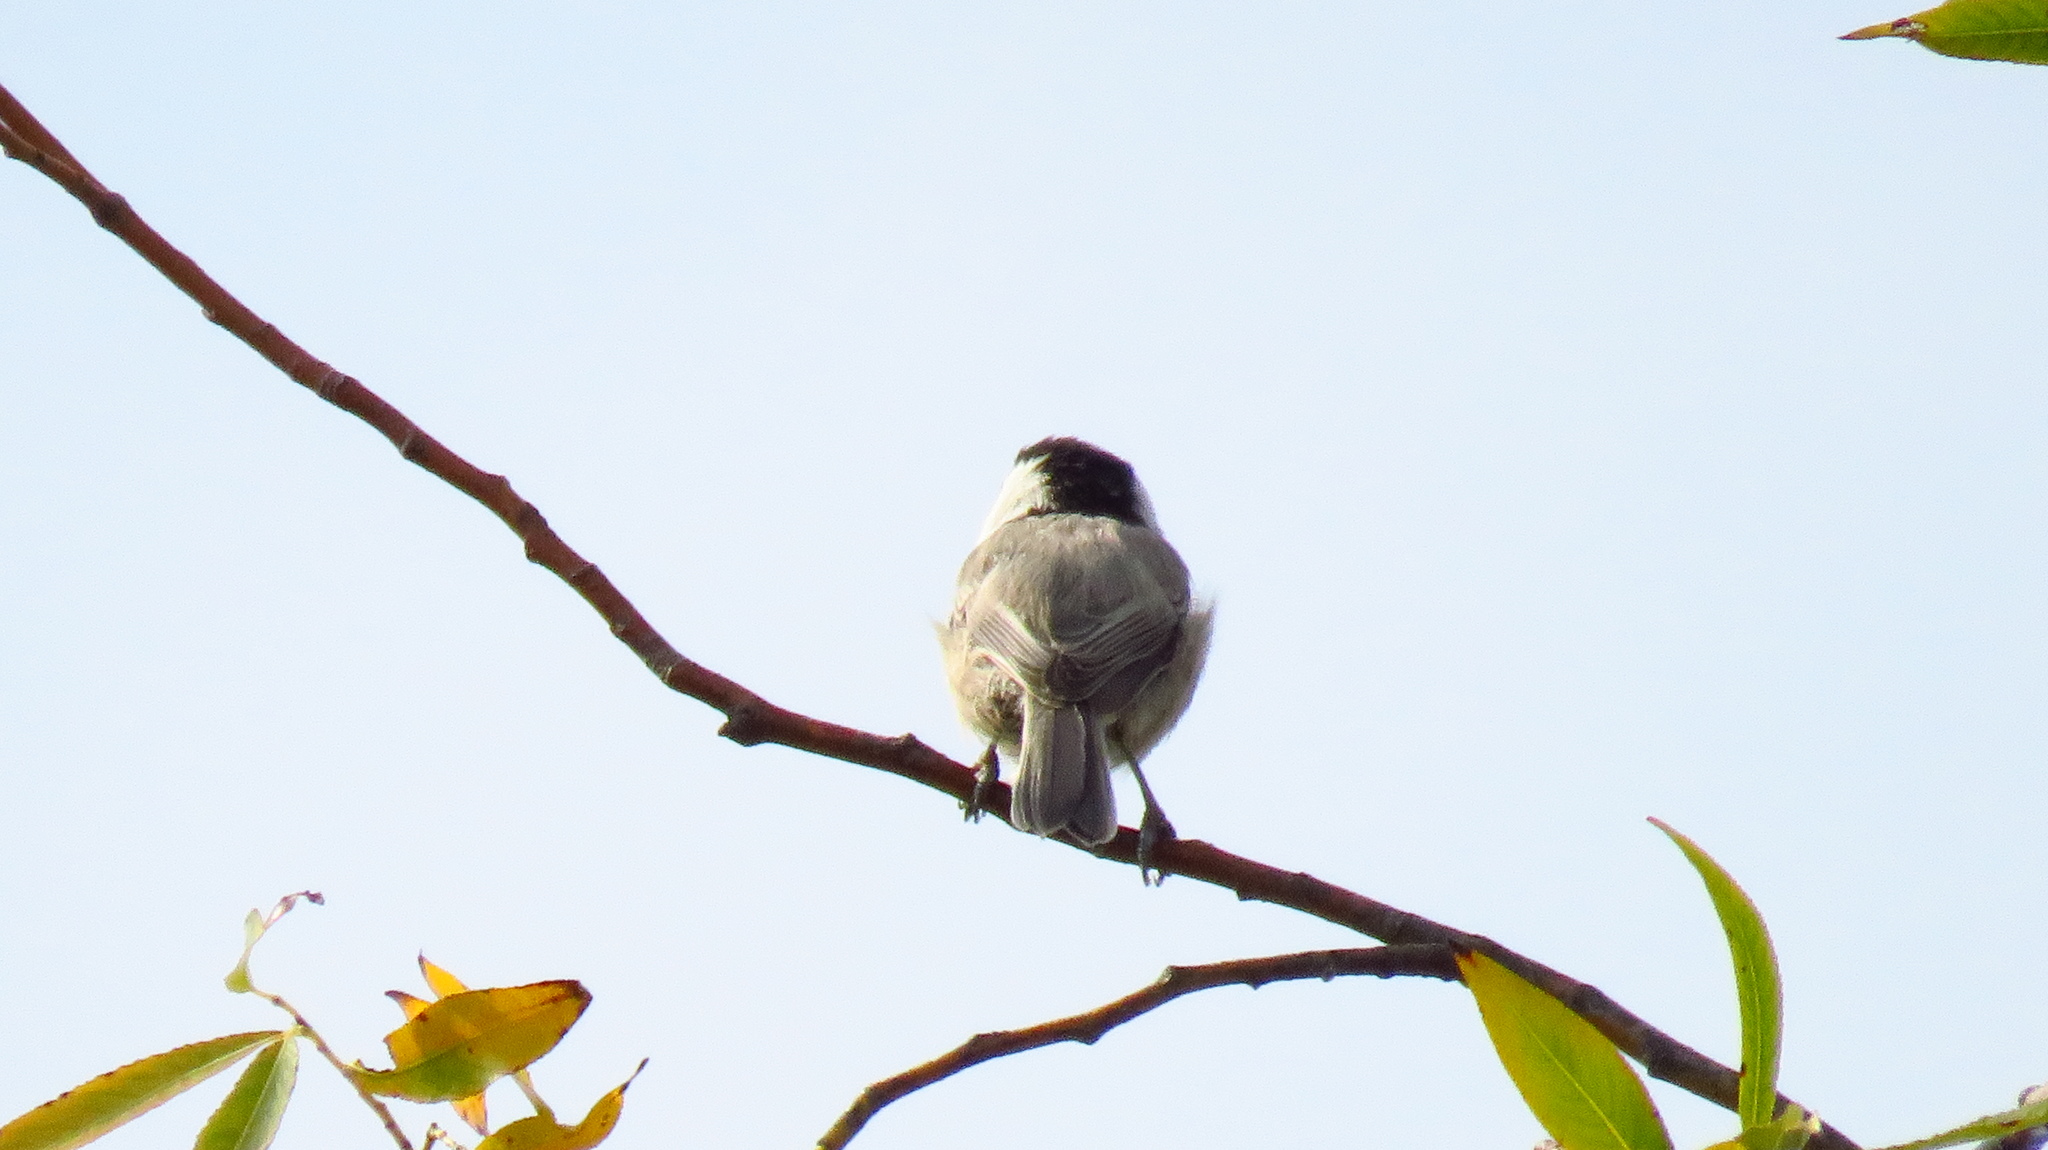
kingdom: Animalia
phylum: Chordata
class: Aves
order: Passeriformes
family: Paridae
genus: Poecile
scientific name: Poecile montanus
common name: Willow tit
